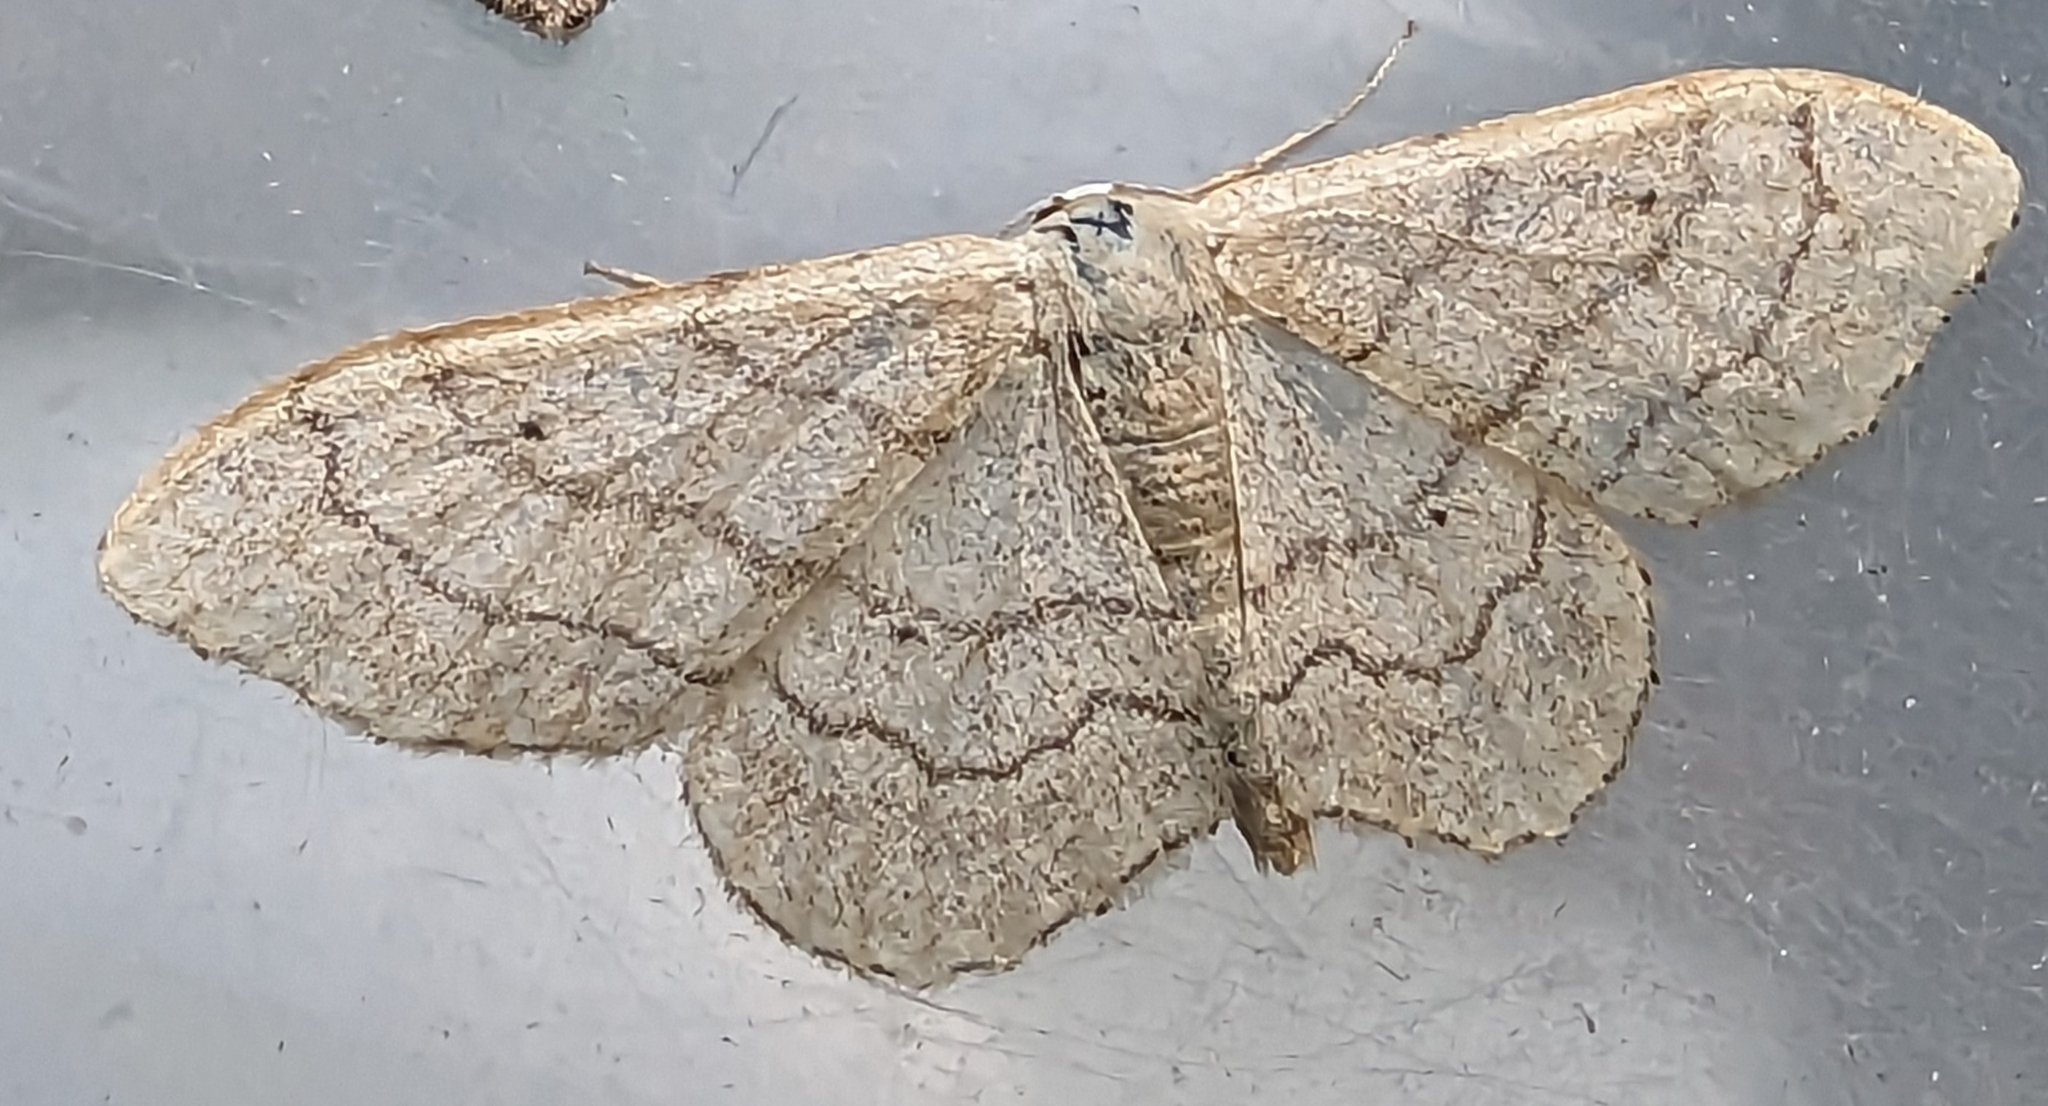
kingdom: Animalia
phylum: Arthropoda
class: Insecta
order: Lepidoptera
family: Geometridae
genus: Idaea
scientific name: Idaea aversata
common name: Riband wave
